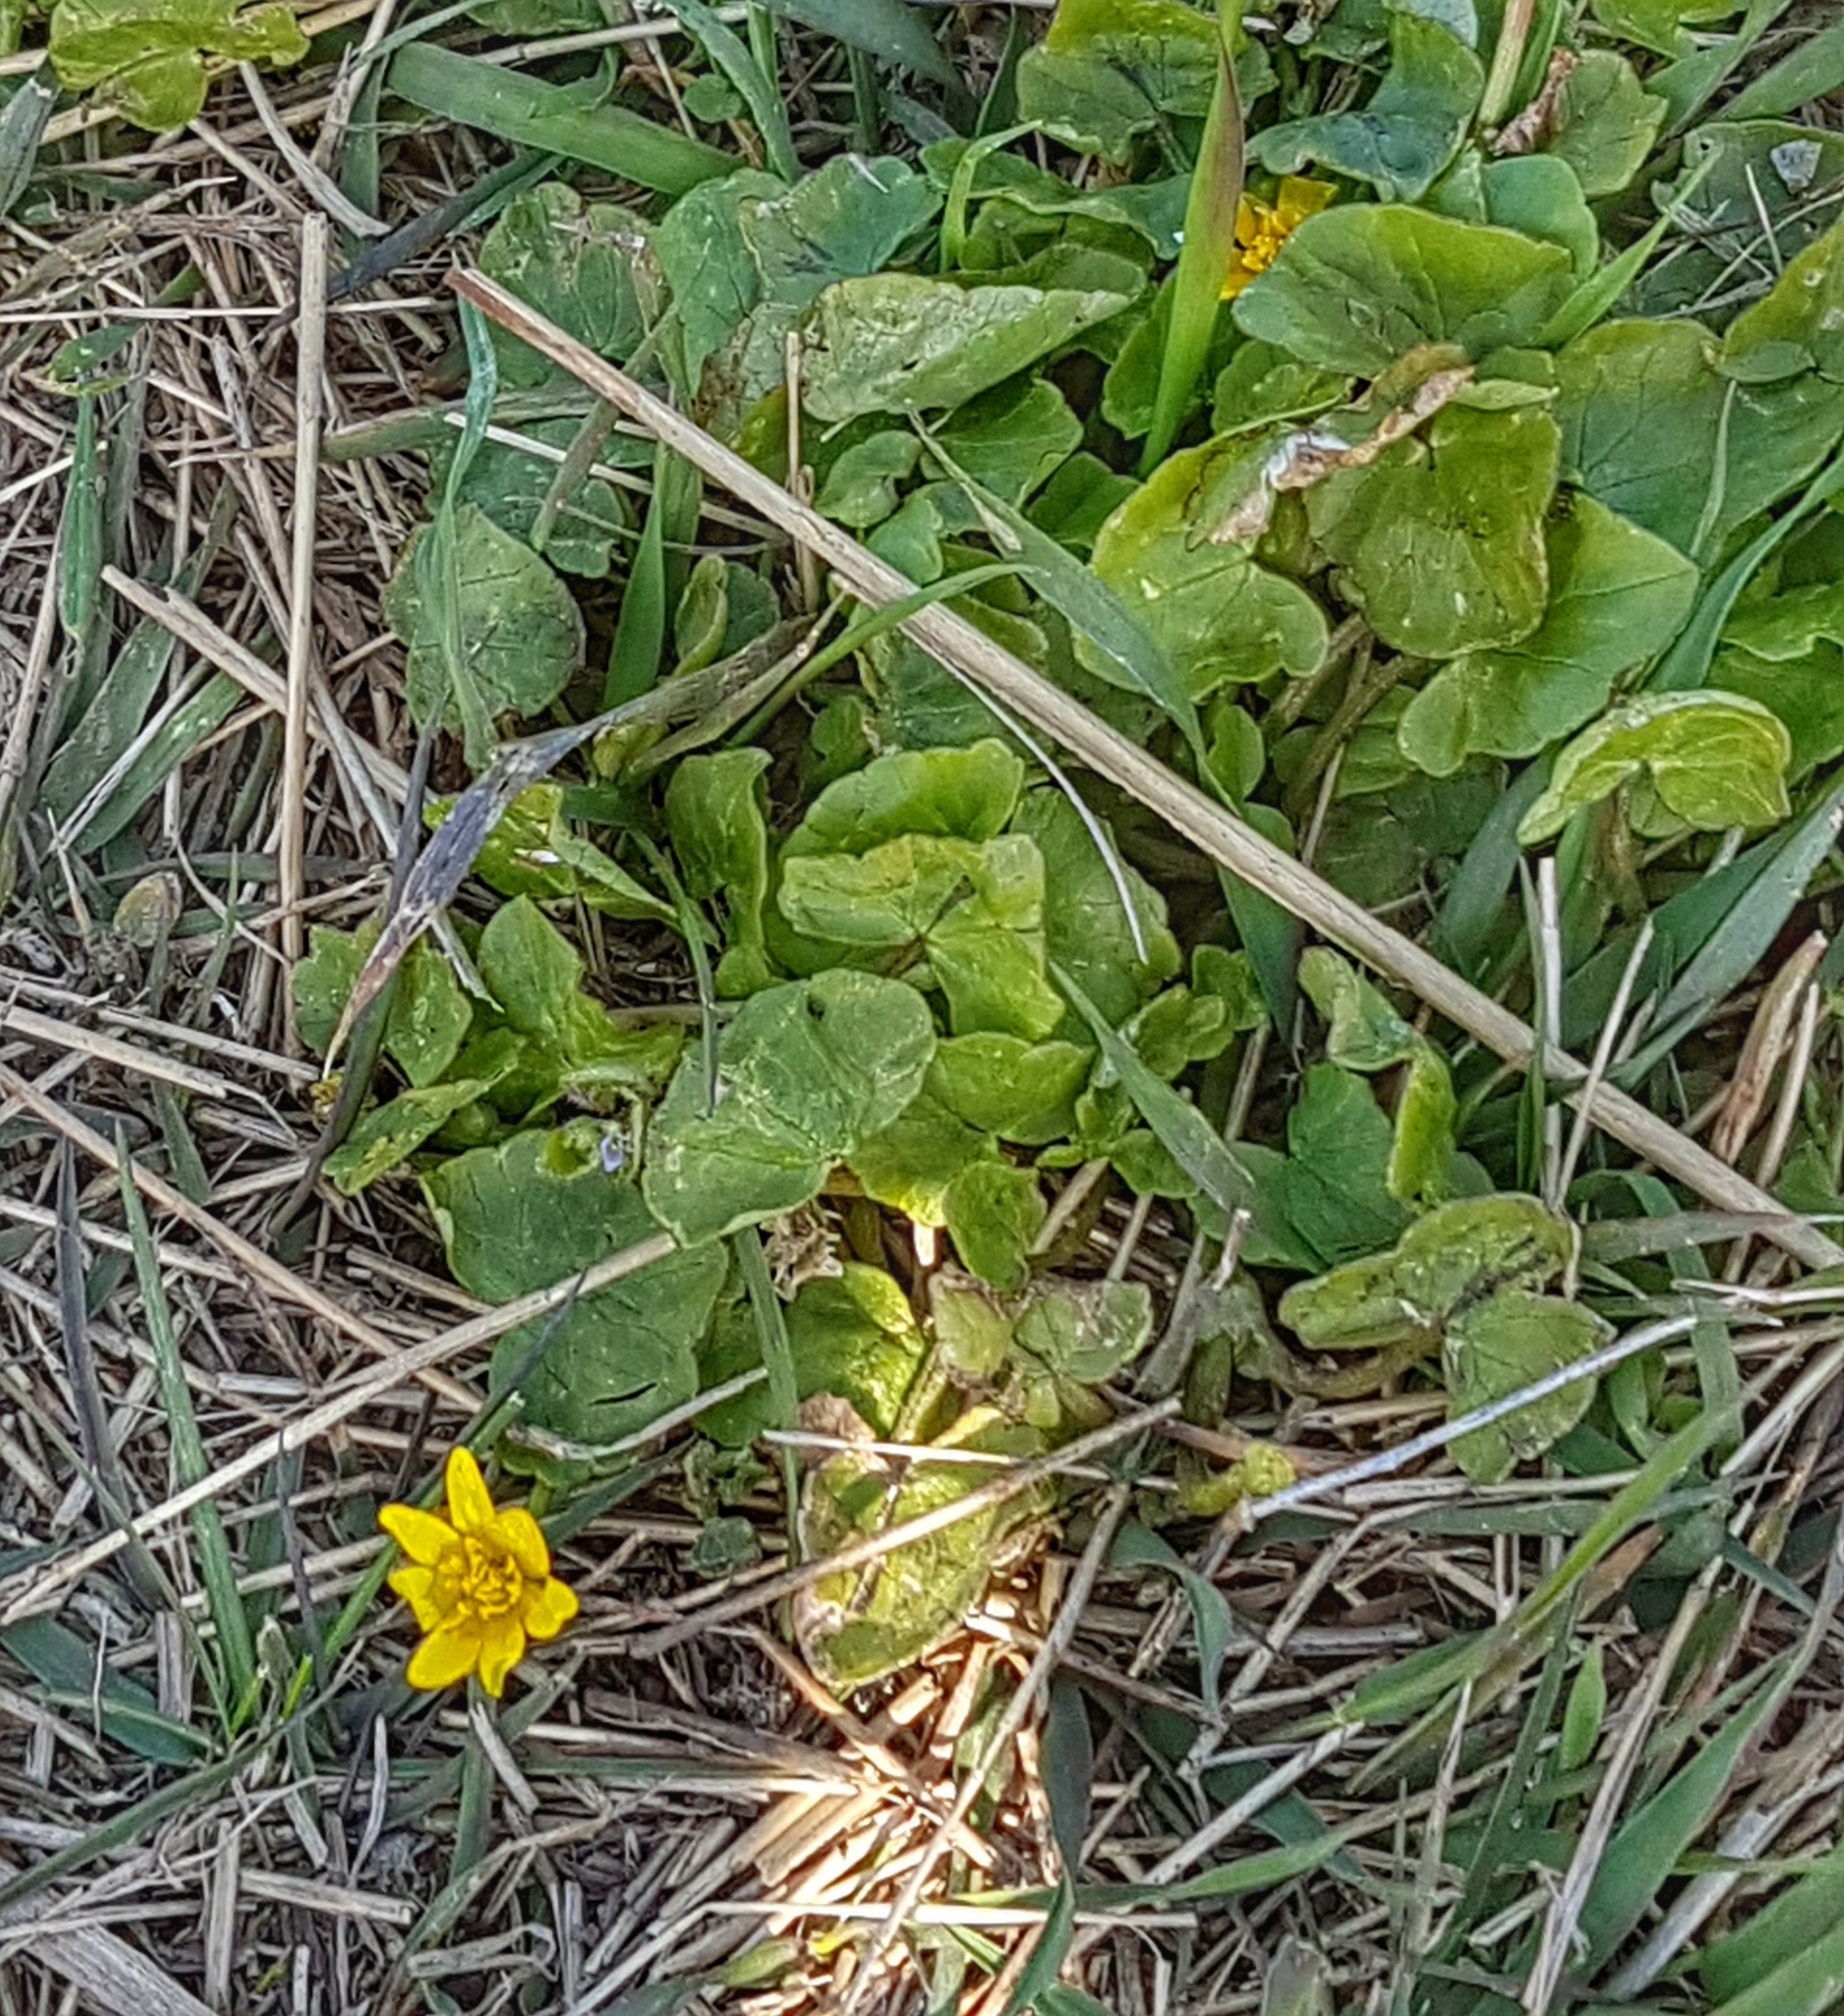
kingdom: Plantae
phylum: Tracheophyta
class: Magnoliopsida
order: Ranunculales
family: Ranunculaceae
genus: Ficaria
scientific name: Ficaria verna
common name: Lesser celandine
